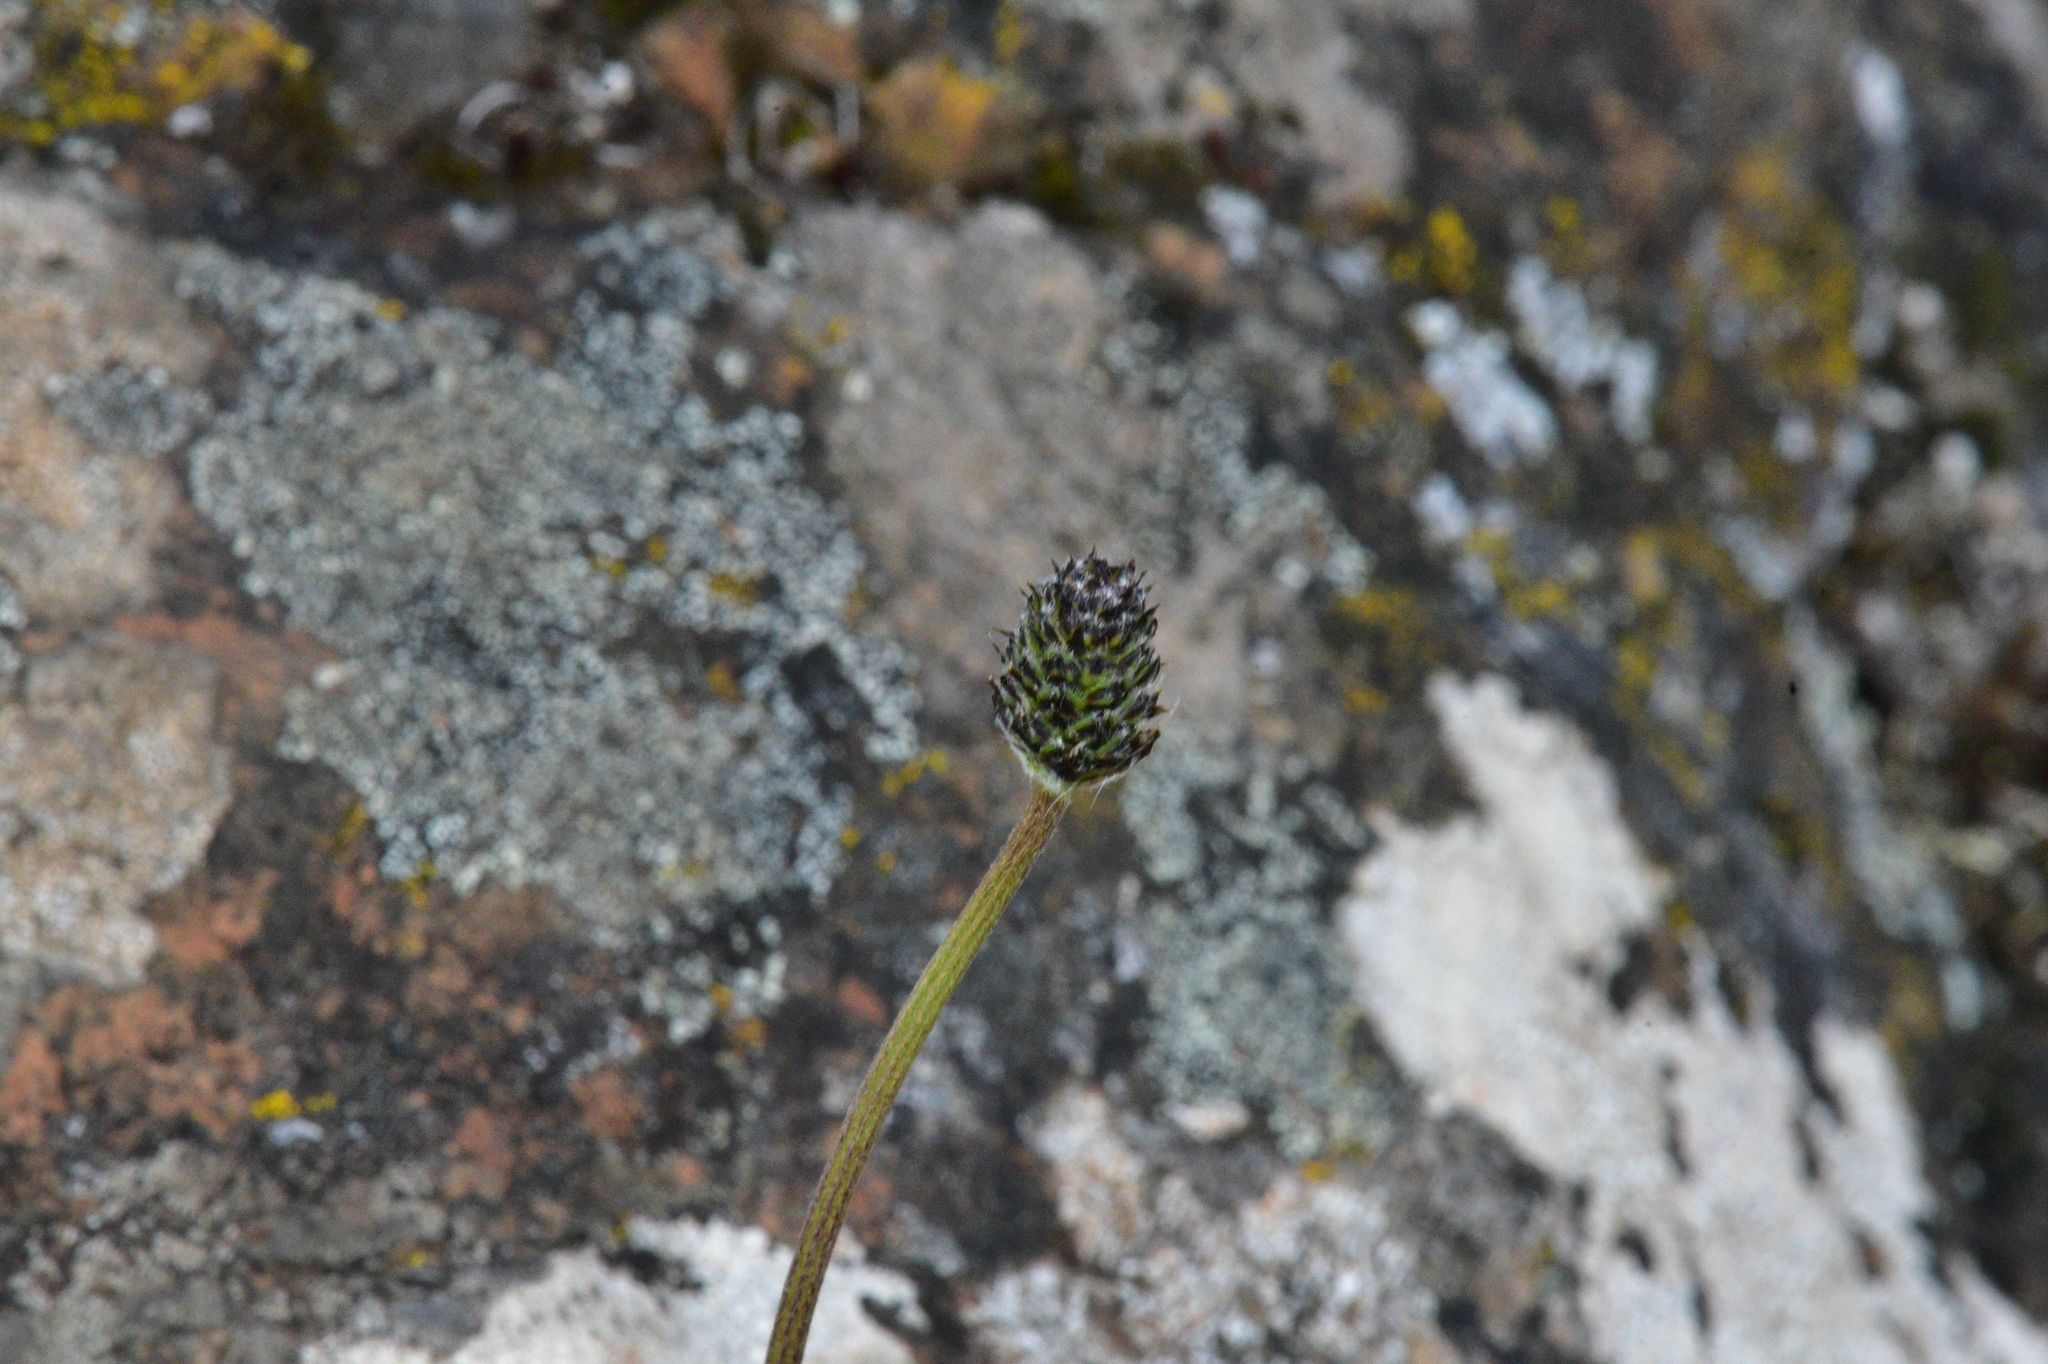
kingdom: Plantae
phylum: Tracheophyta
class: Magnoliopsida
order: Lamiales
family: Plantaginaceae
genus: Plantago
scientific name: Plantago lanceolata
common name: Ribwort plantain
